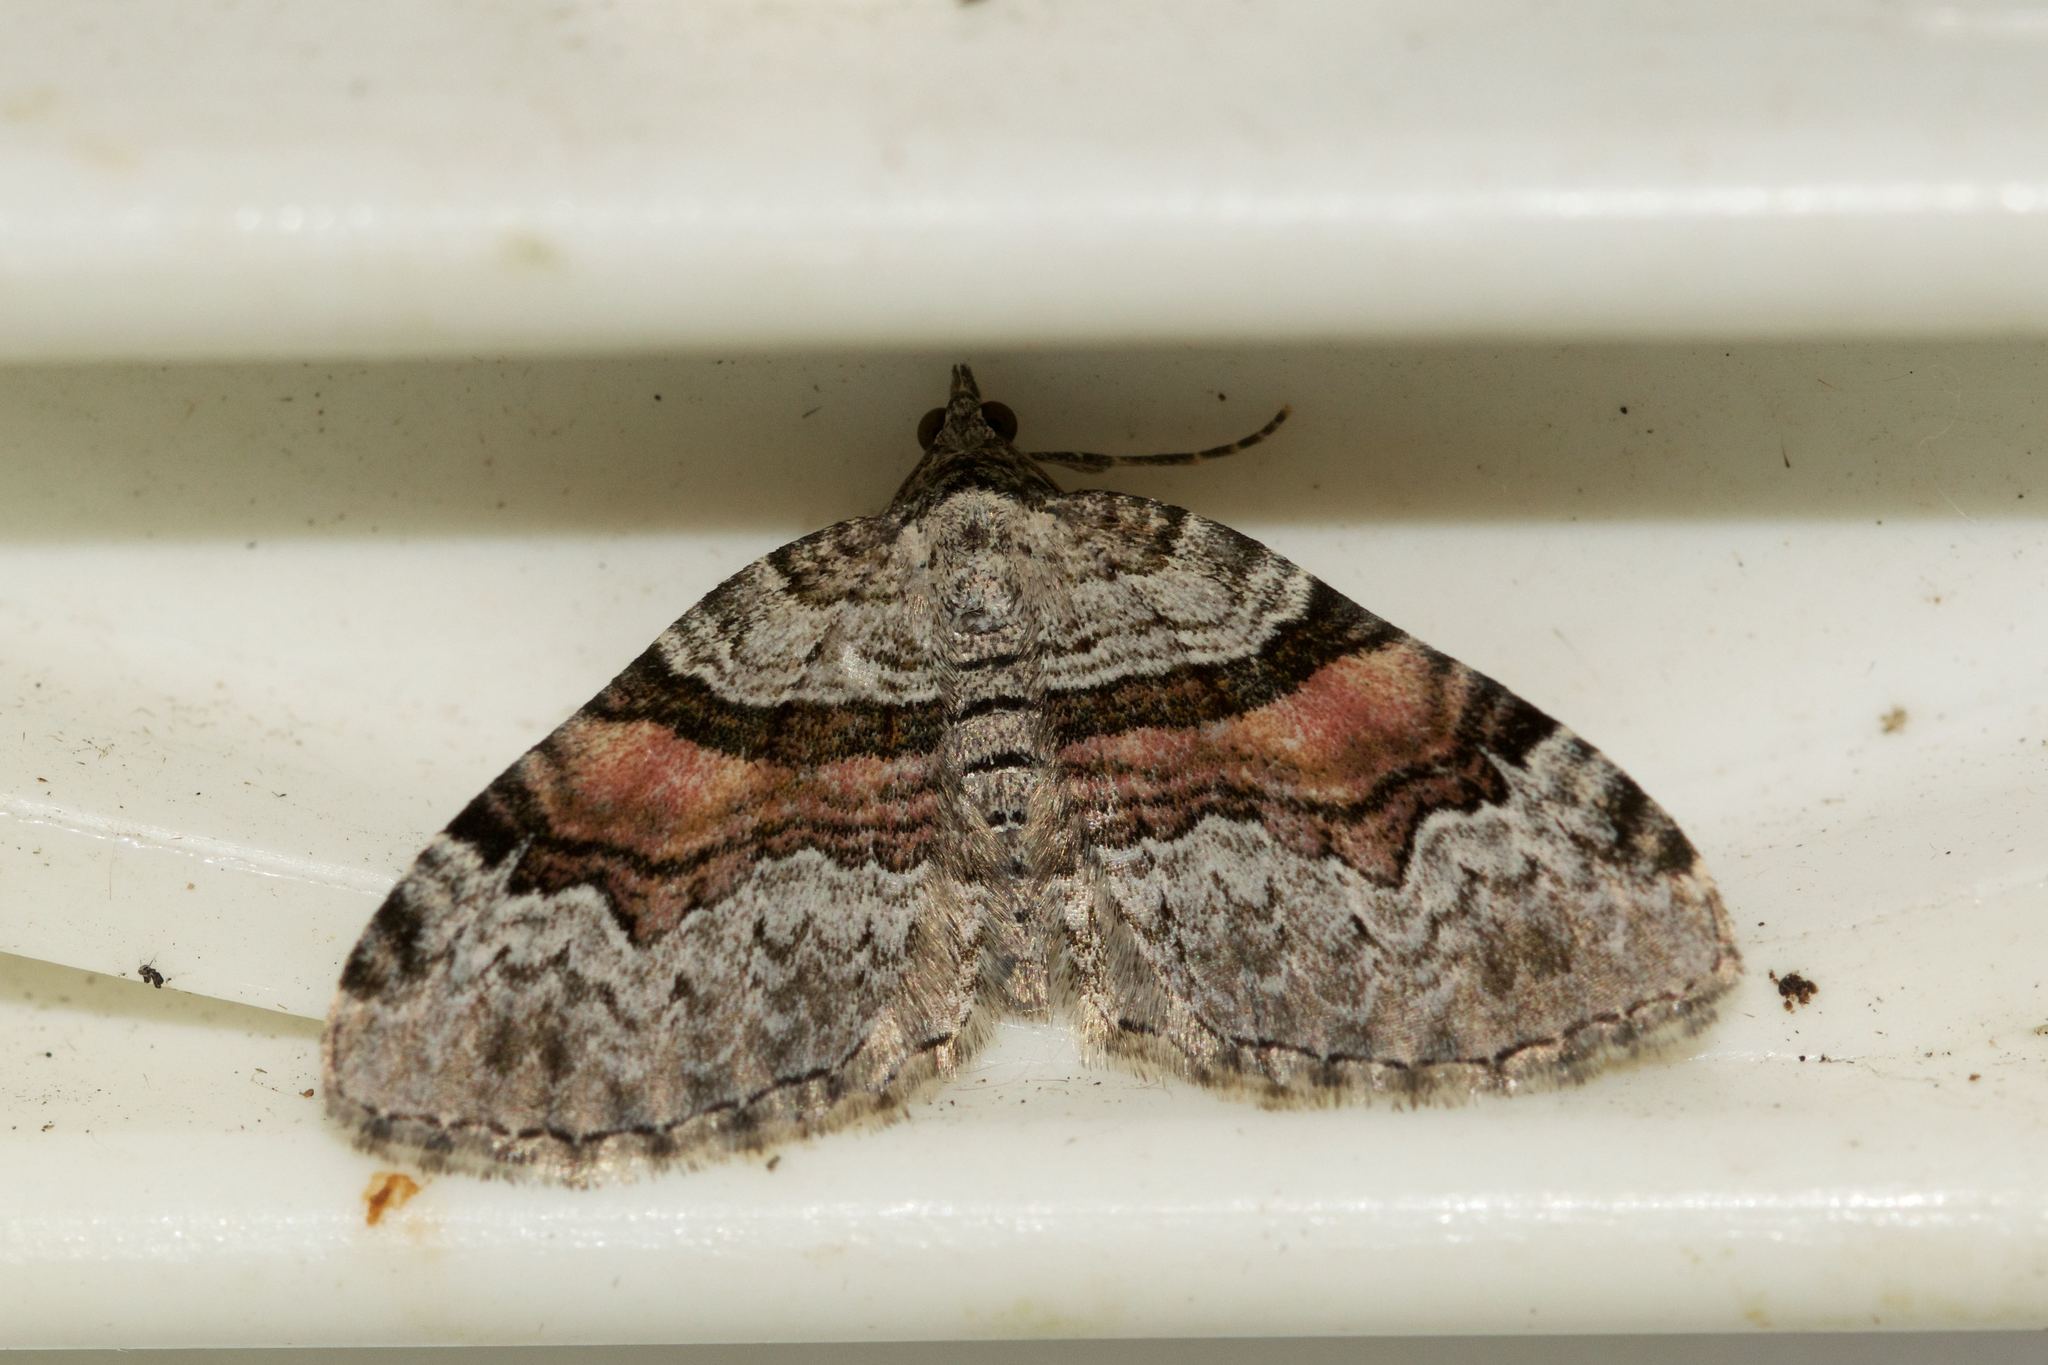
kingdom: Animalia
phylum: Arthropoda
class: Insecta
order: Lepidoptera
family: Geometridae
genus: Xanthorhoe
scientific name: Xanthorhoe packardata
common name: Packard's carpet
